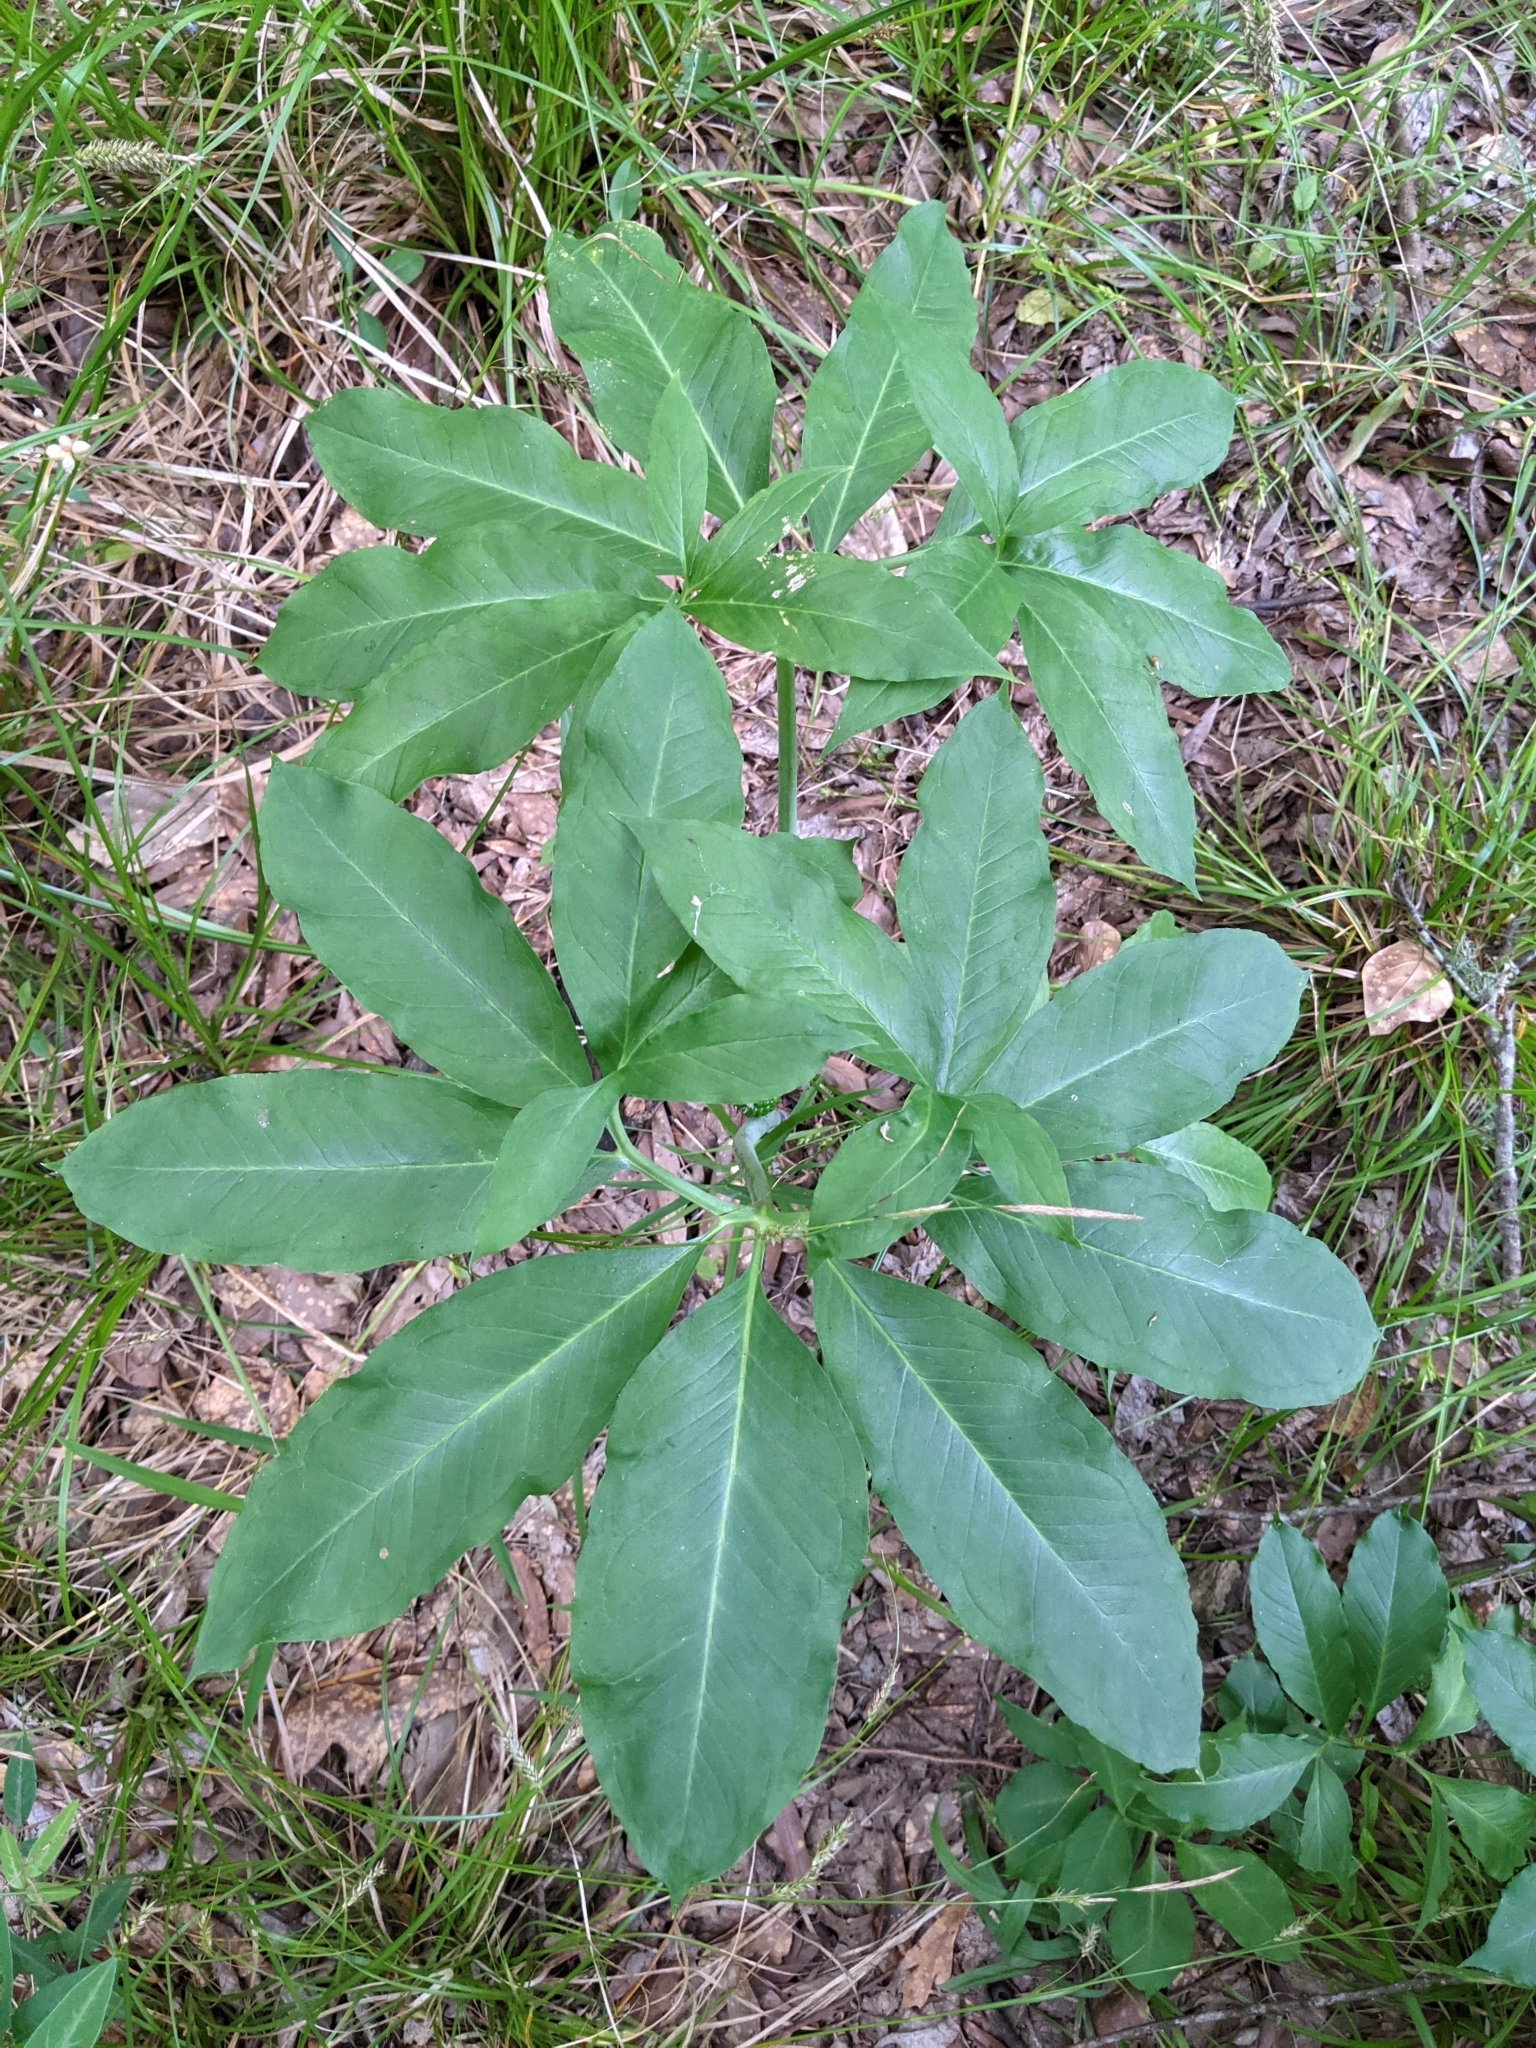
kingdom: Plantae
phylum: Tracheophyta
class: Liliopsida
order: Alismatales
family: Araceae
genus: Arisaema
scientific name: Arisaema dracontium
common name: Dragon-arum
